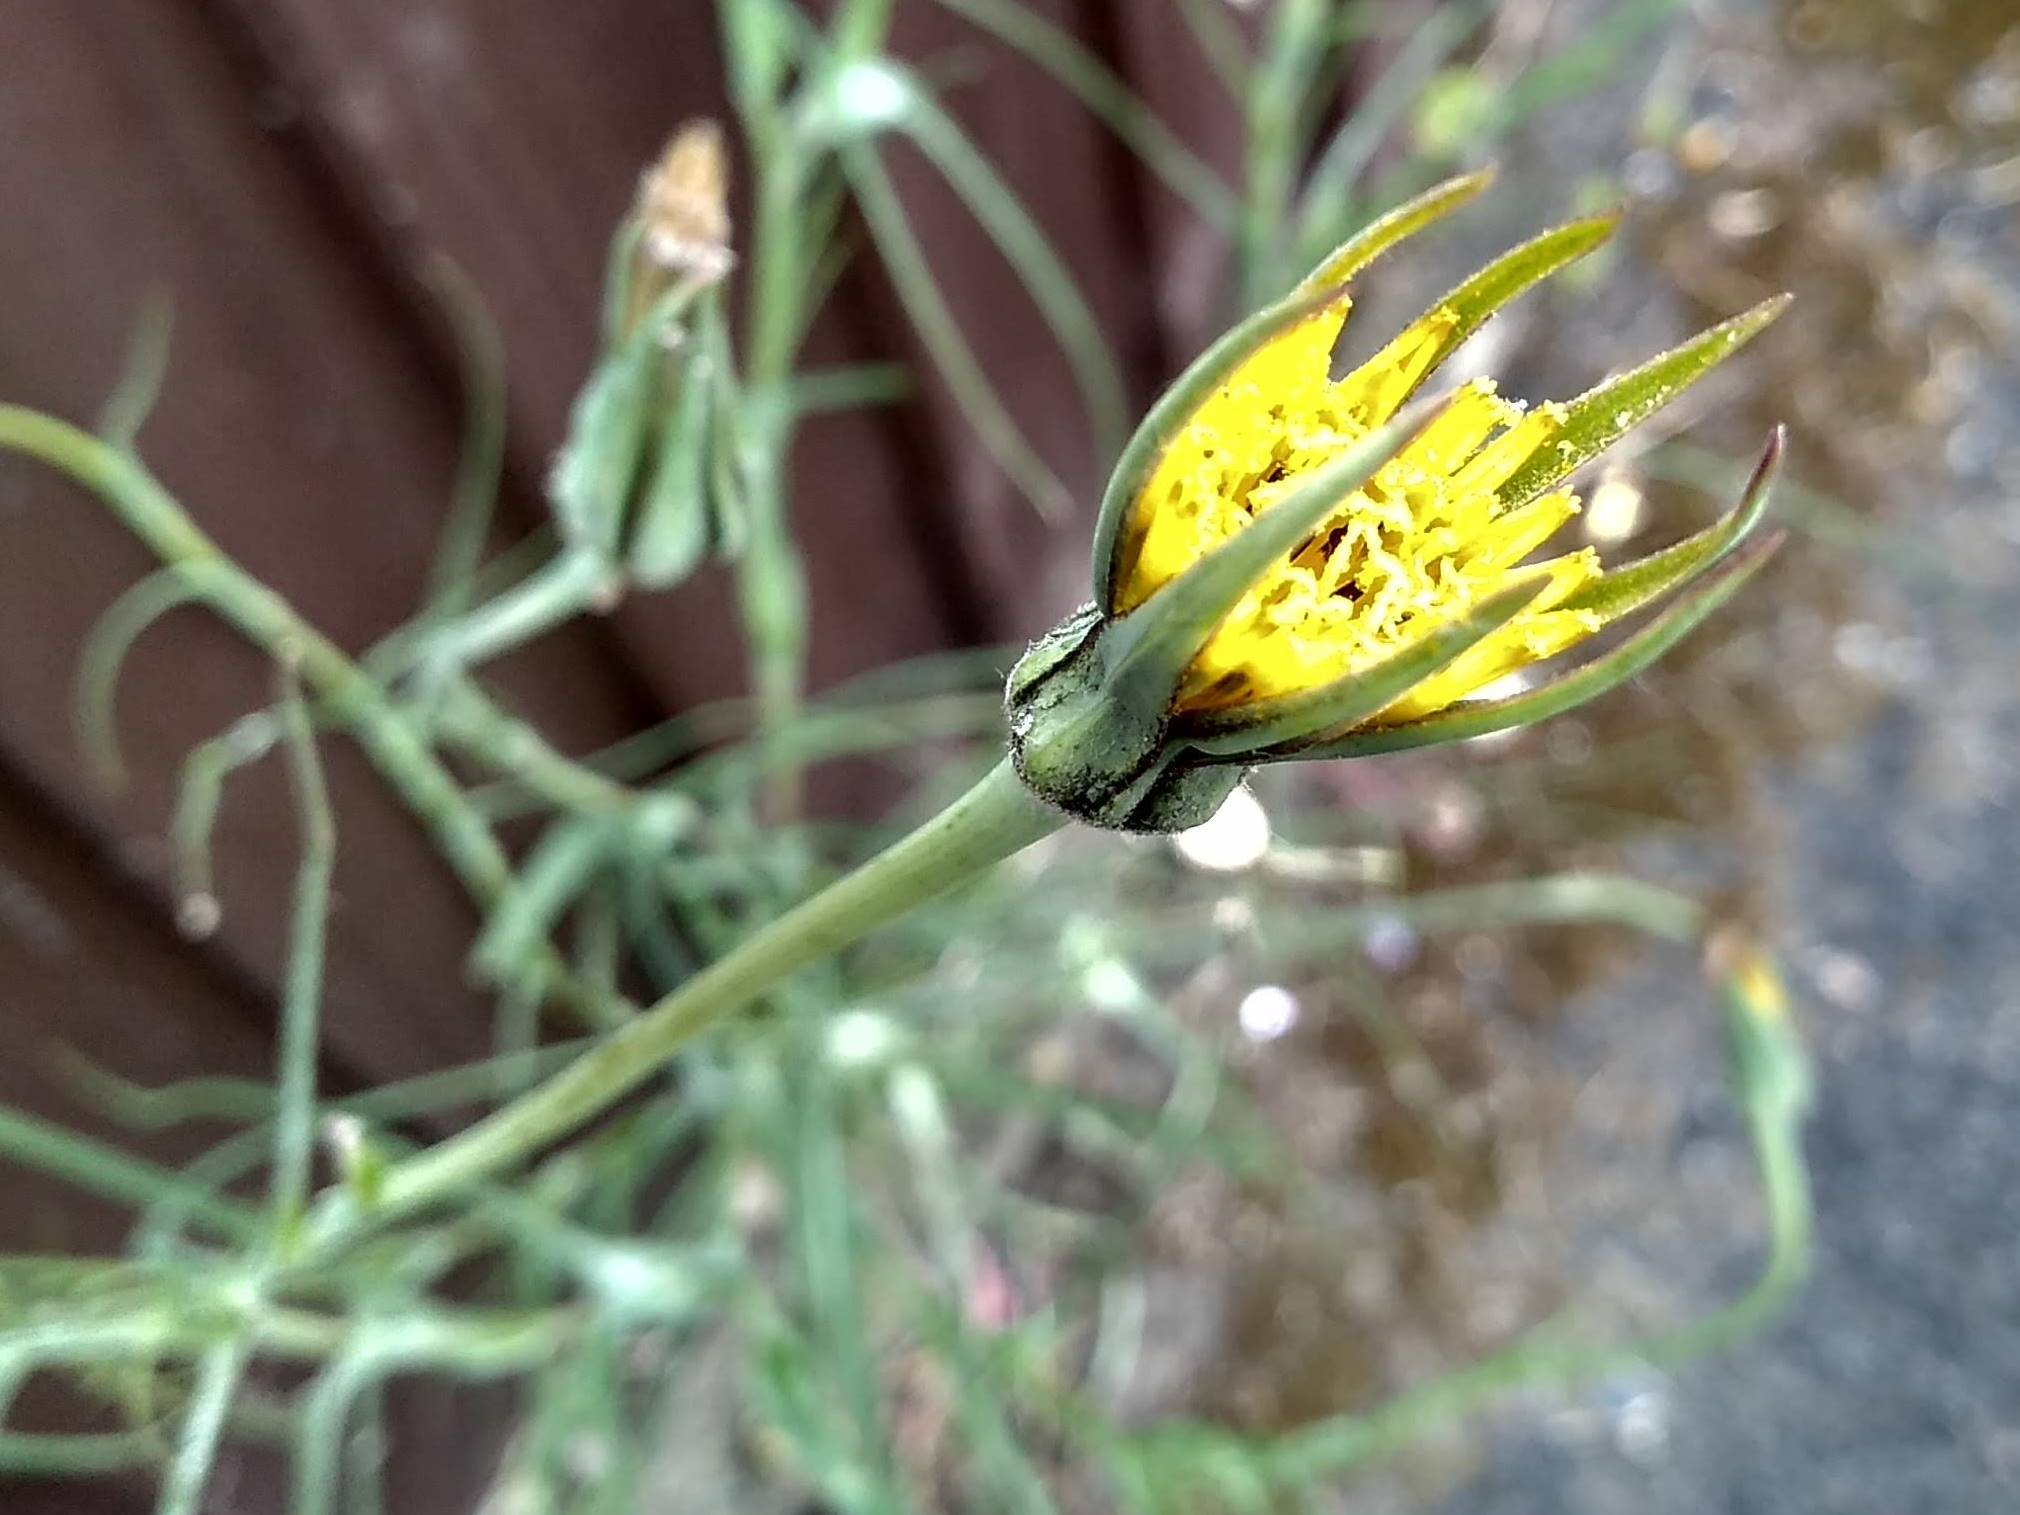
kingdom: Plantae
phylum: Tracheophyta
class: Magnoliopsida
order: Asterales
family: Asteraceae
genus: Tragopogon
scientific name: Tragopogon pratensis
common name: Goat's-beard
